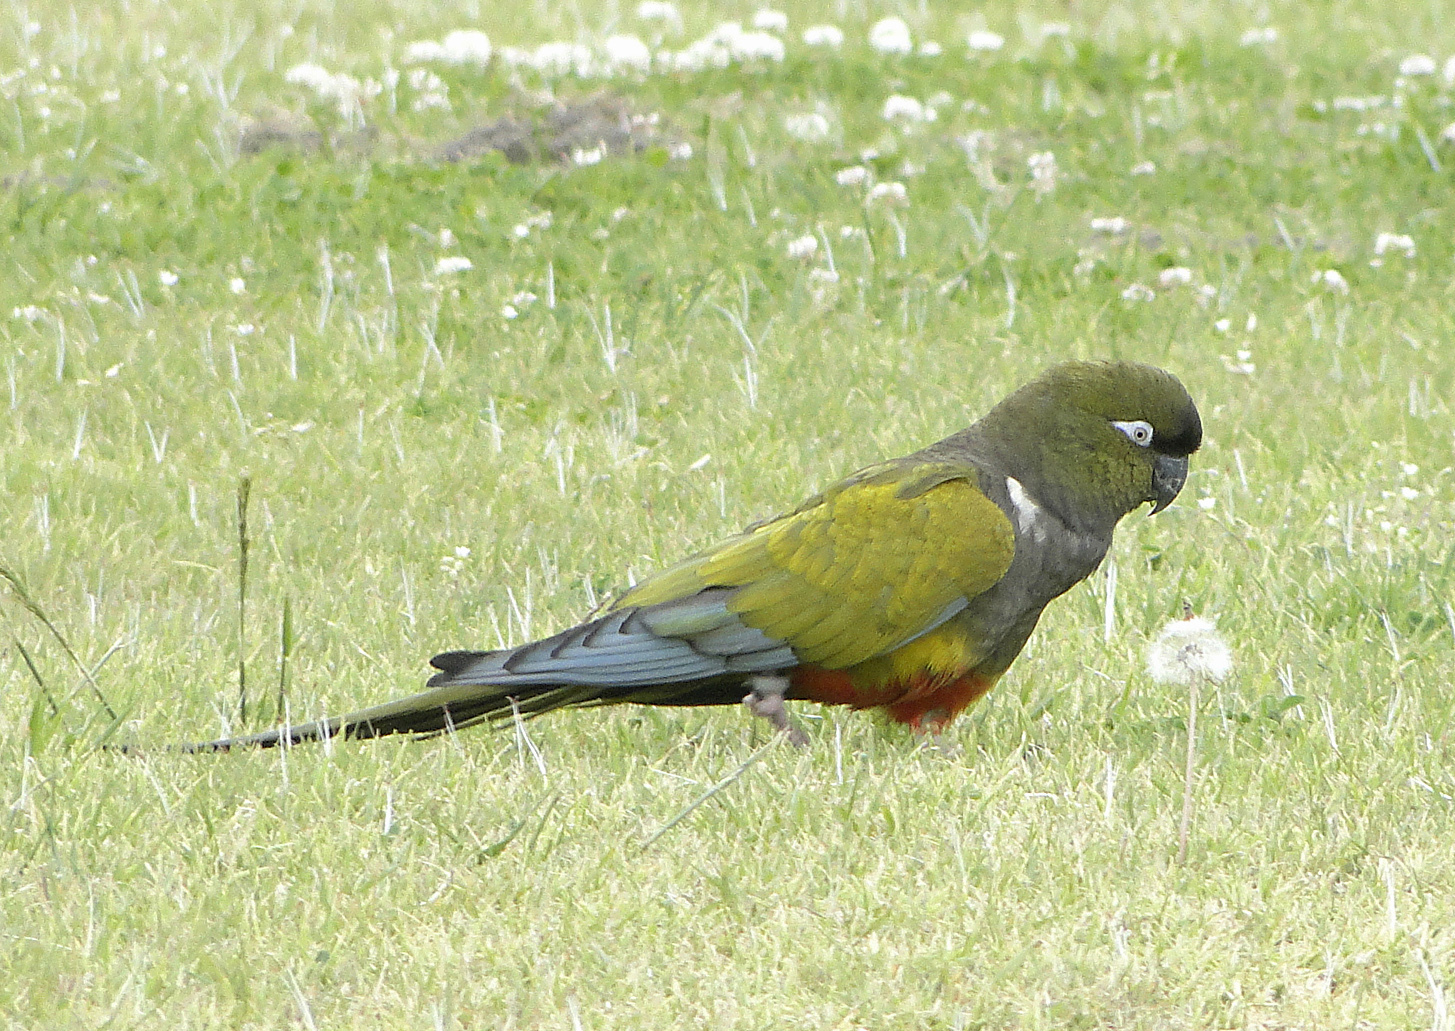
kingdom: Animalia
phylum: Chordata
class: Aves
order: Psittaciformes
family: Psittacidae
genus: Cyanoliseus
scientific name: Cyanoliseus patagonus
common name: Burrowing parrot
